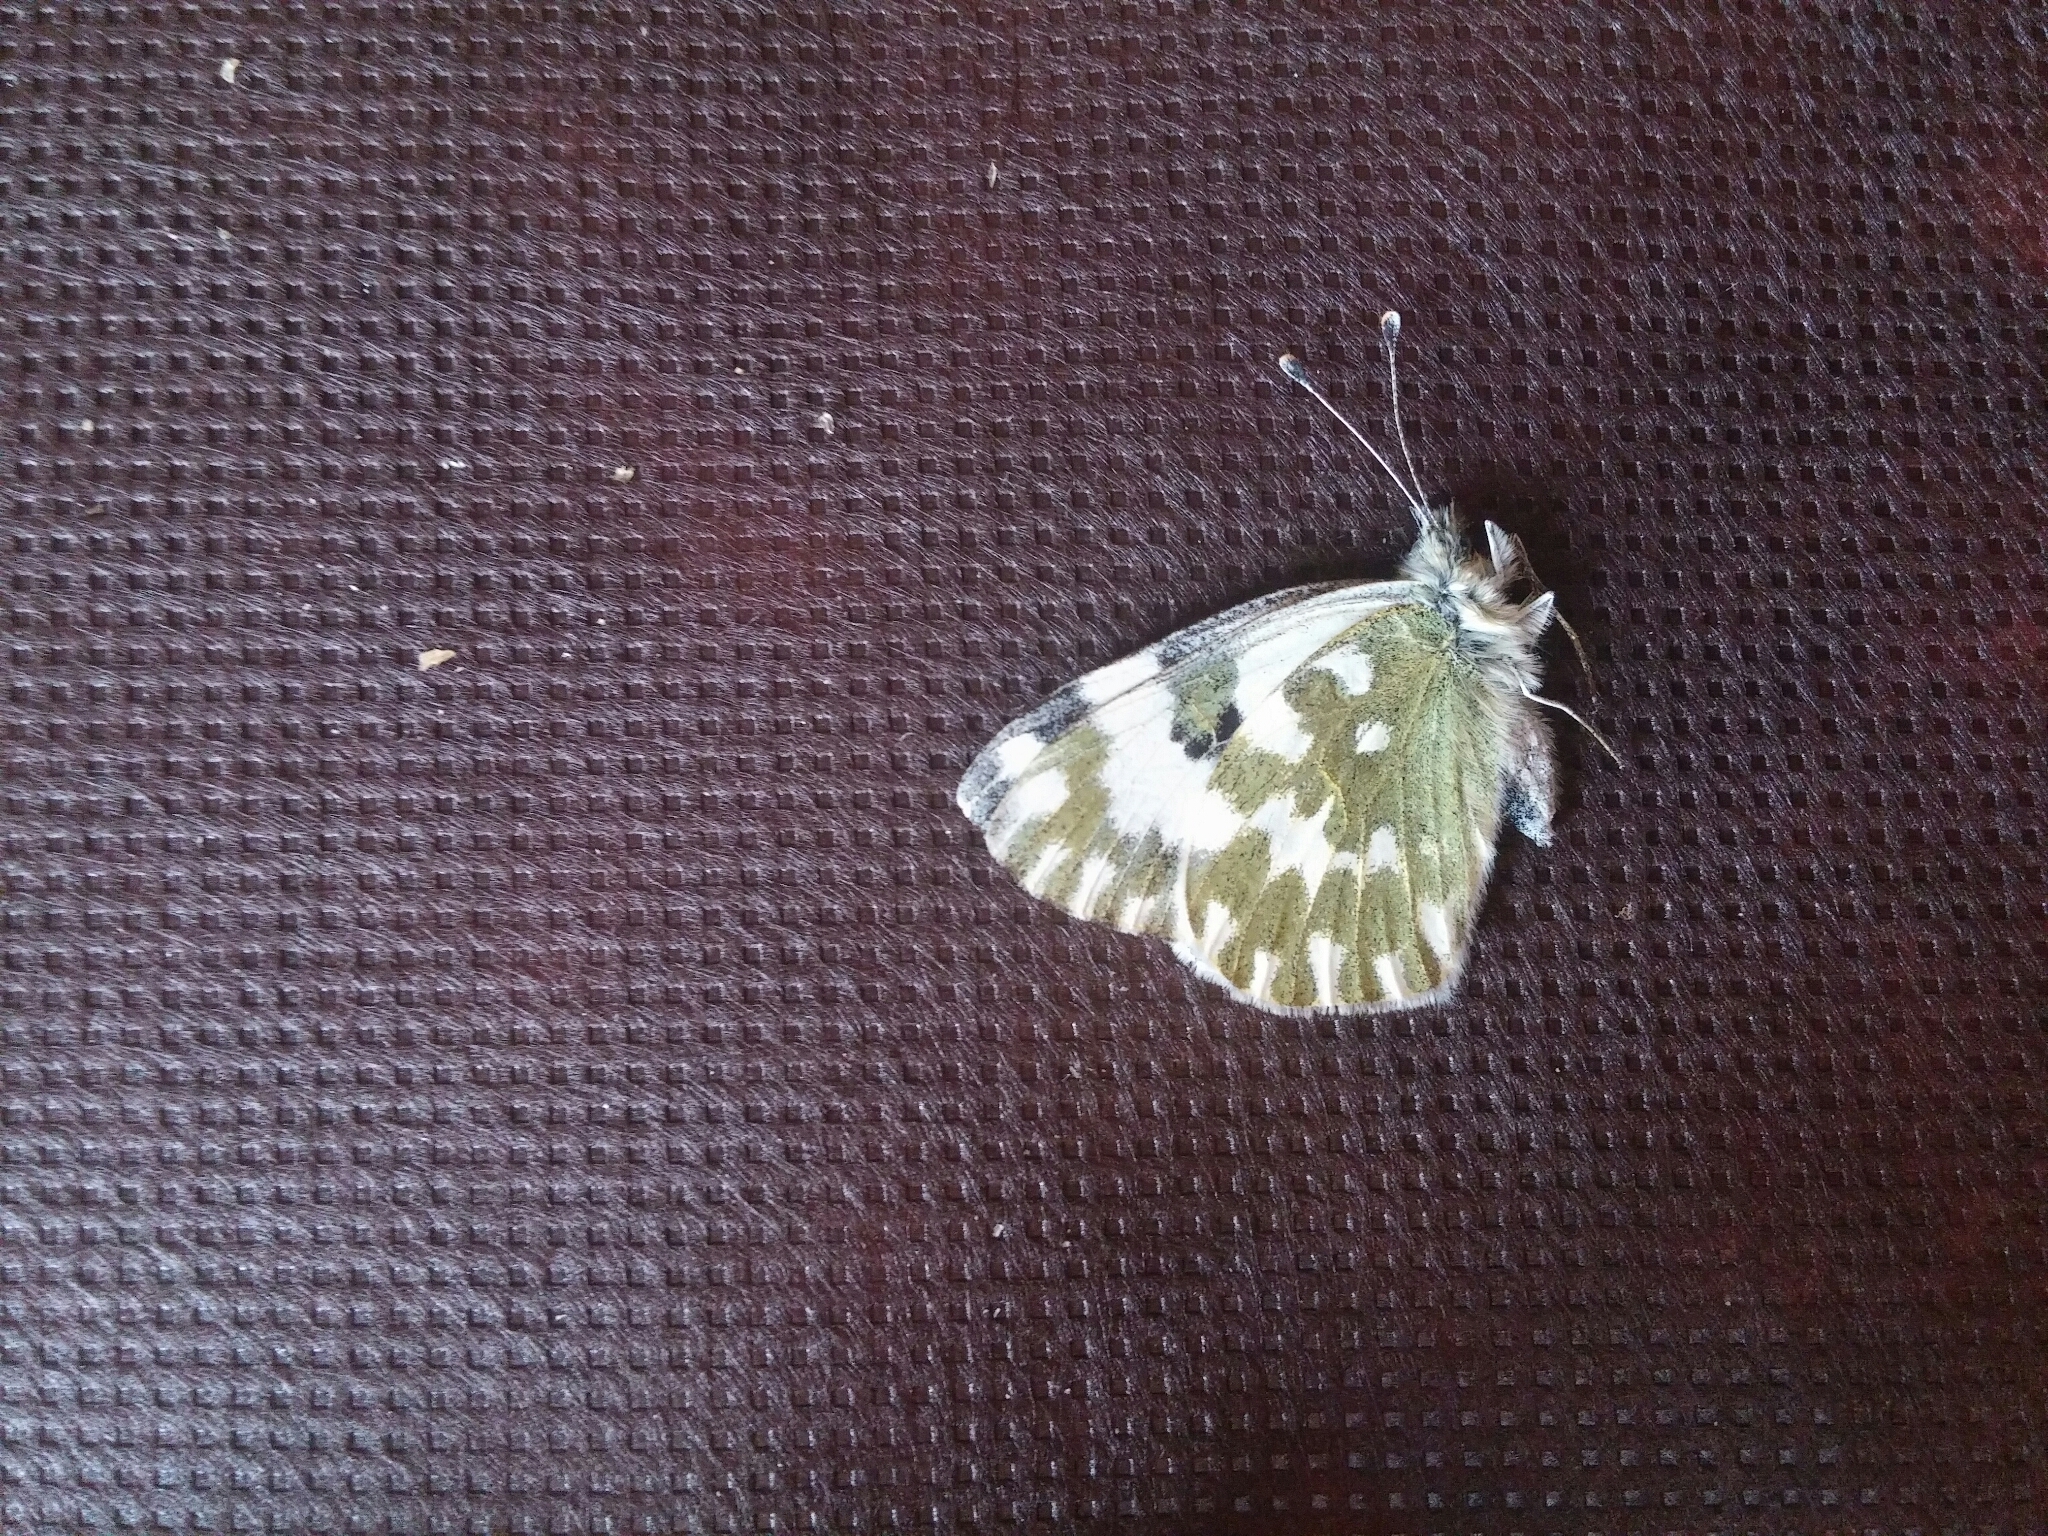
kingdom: Animalia
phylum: Arthropoda
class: Insecta
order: Lepidoptera
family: Pieridae
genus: Pontia
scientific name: Pontia edusa
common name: Eastern bath white
